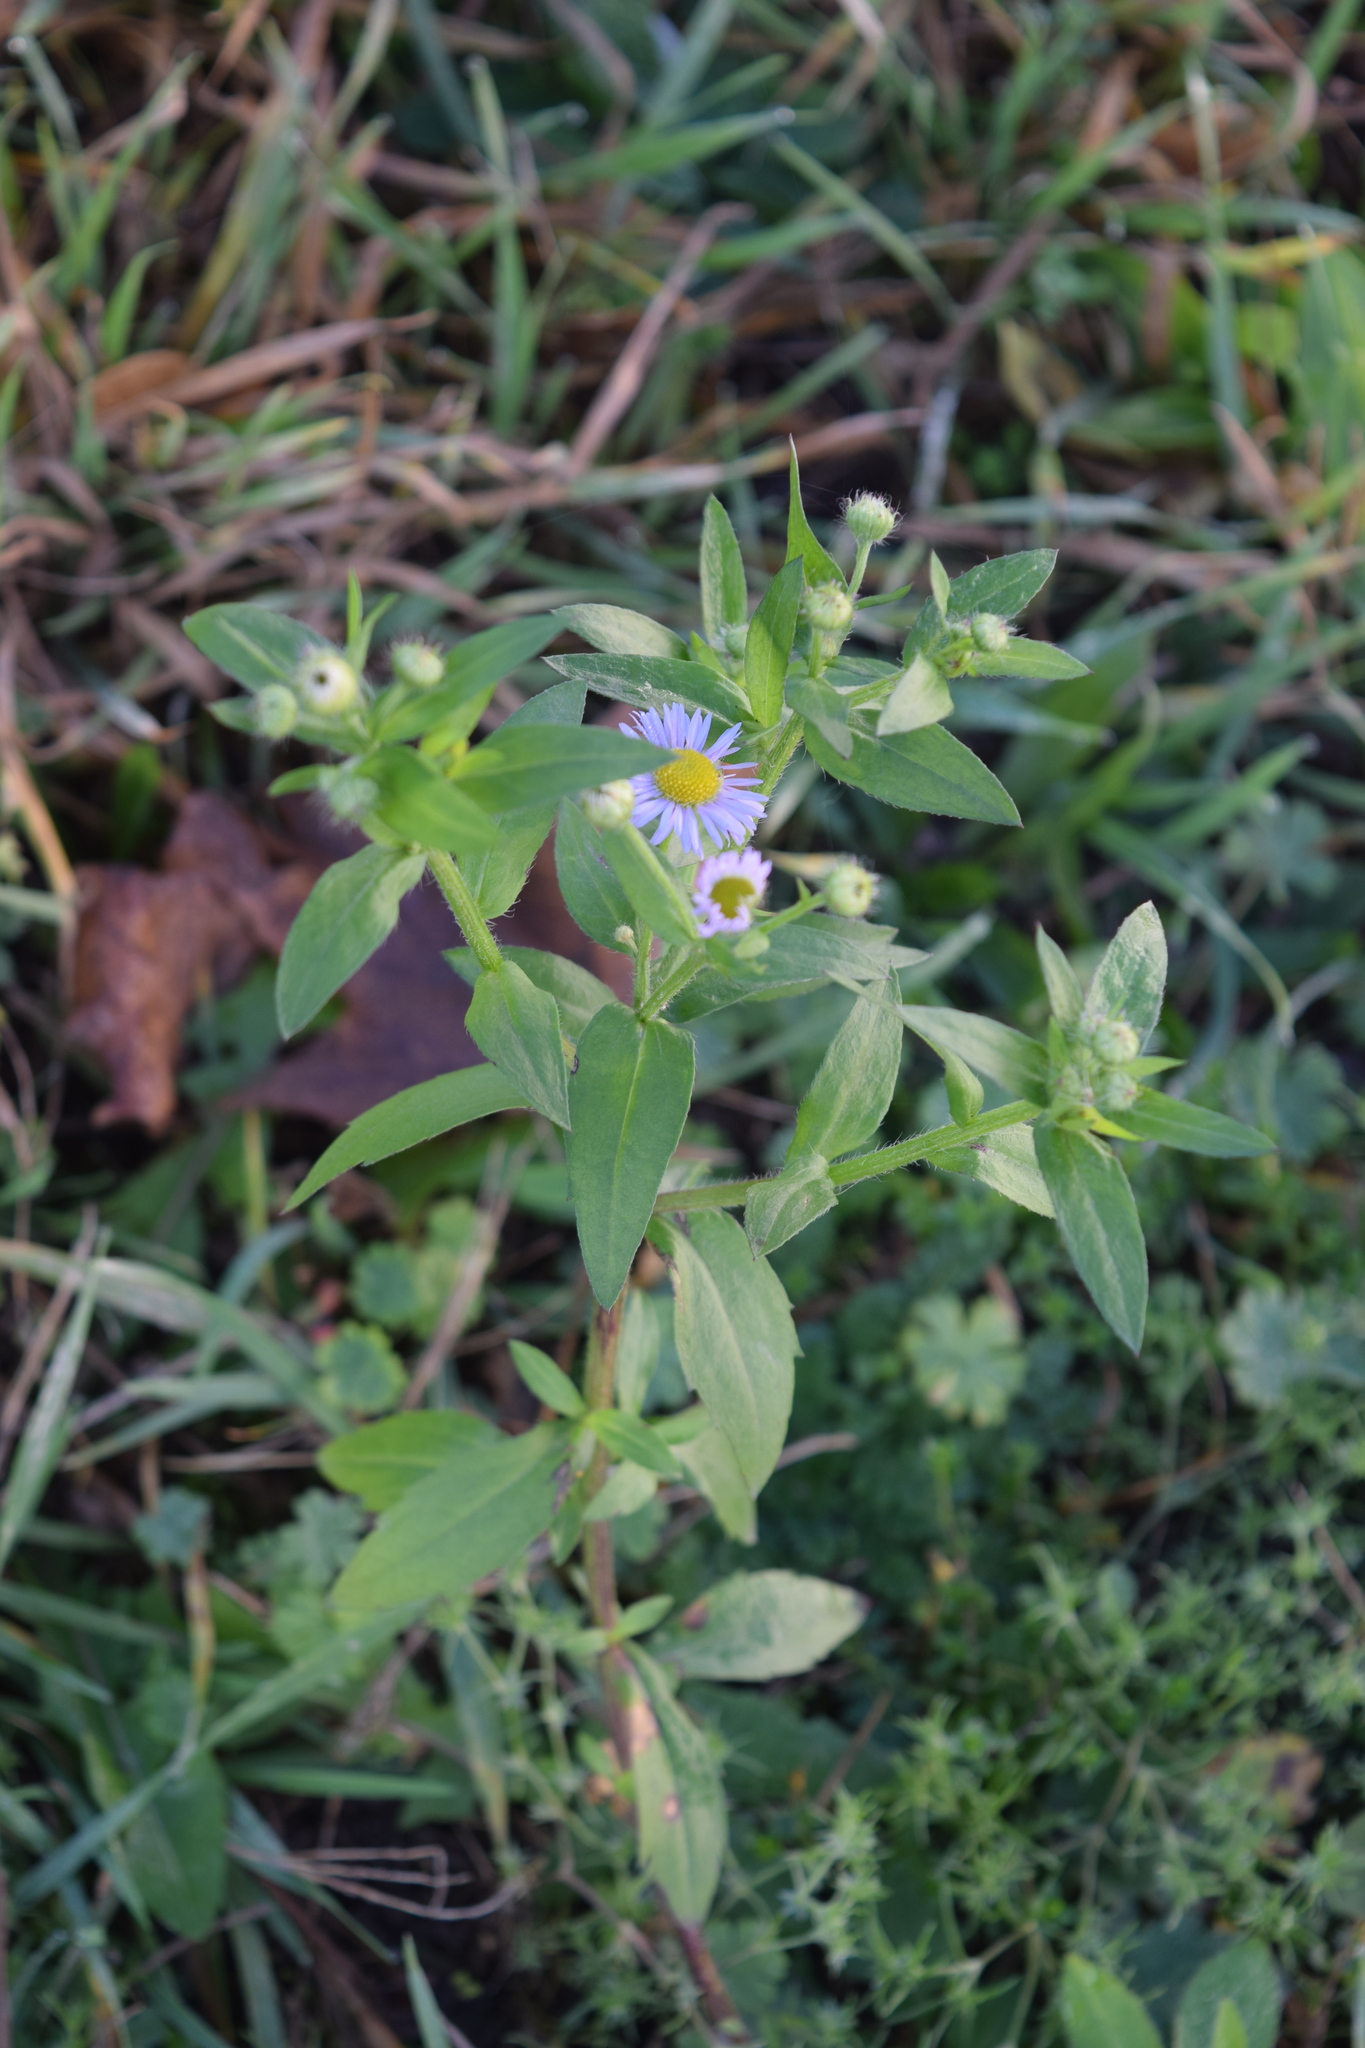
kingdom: Plantae
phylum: Tracheophyta
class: Magnoliopsida
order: Asterales
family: Asteraceae
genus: Erigeron
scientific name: Erigeron annuus
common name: Tall fleabane
